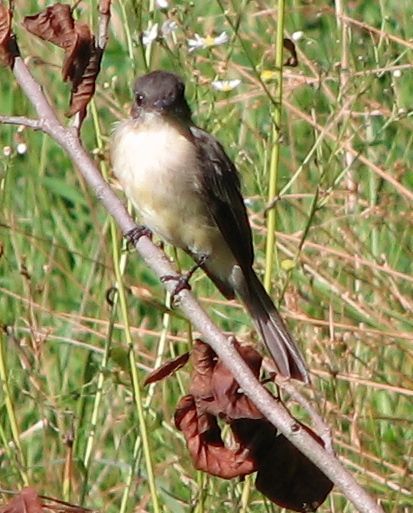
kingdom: Animalia
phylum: Chordata
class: Aves
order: Passeriformes
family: Tyrannidae
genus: Sayornis
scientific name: Sayornis phoebe
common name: Eastern phoebe
